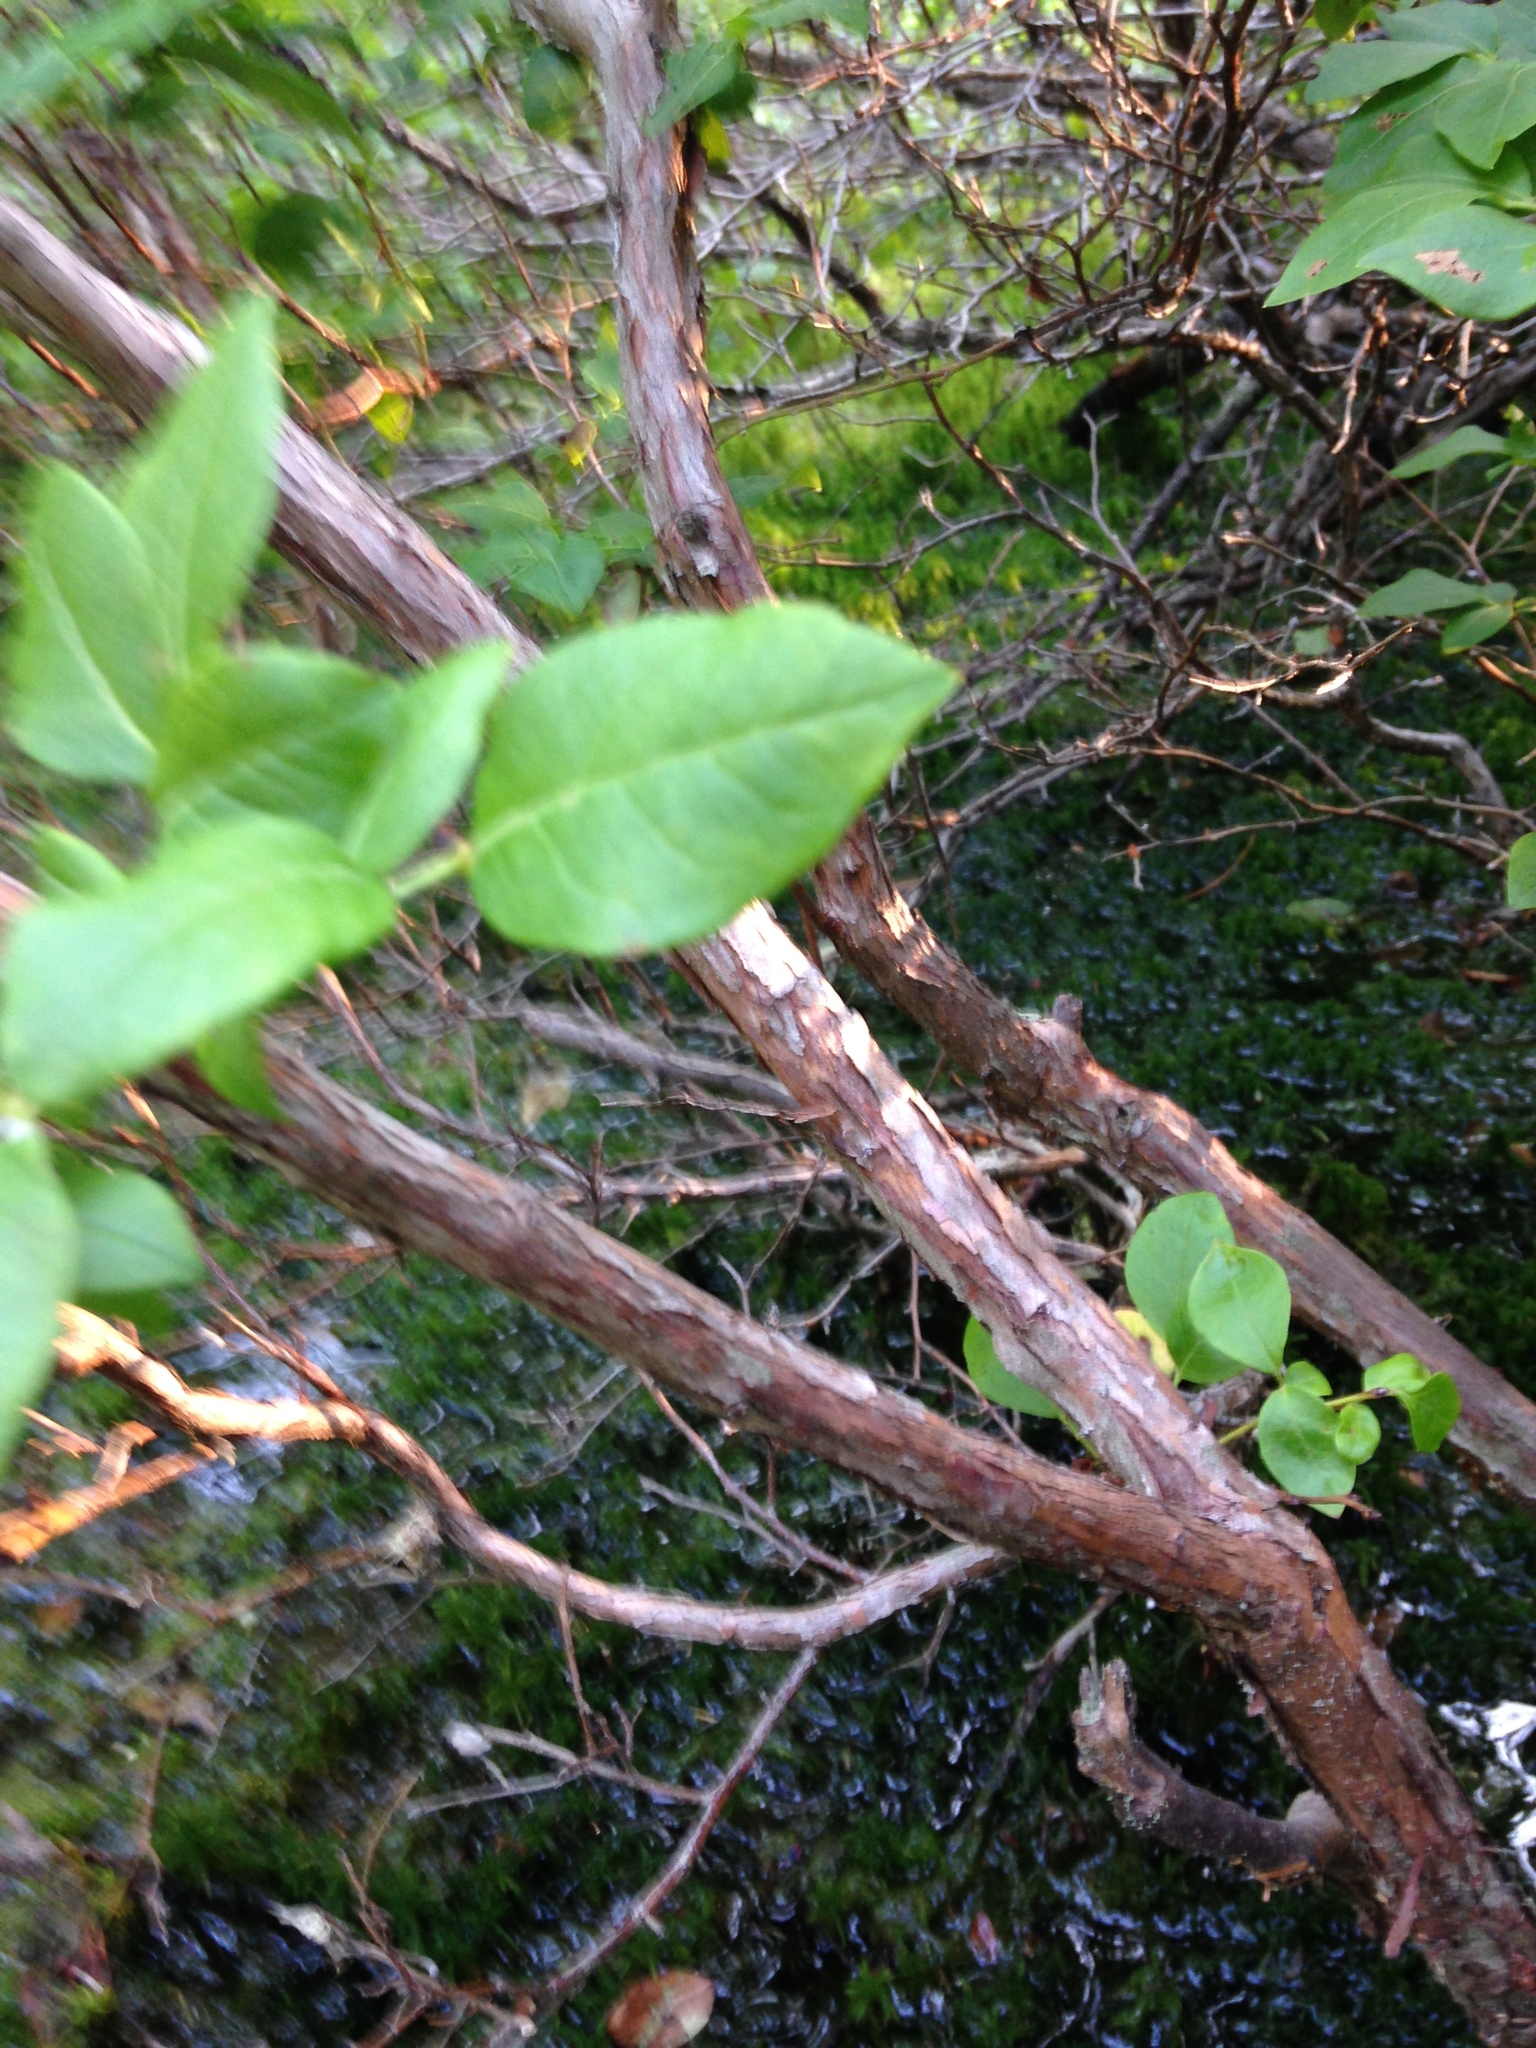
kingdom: Plantae
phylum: Tracheophyta
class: Magnoliopsida
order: Ericales
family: Ericaceae
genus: Vaccinium
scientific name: Vaccinium corymbosum
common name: Blueberry
